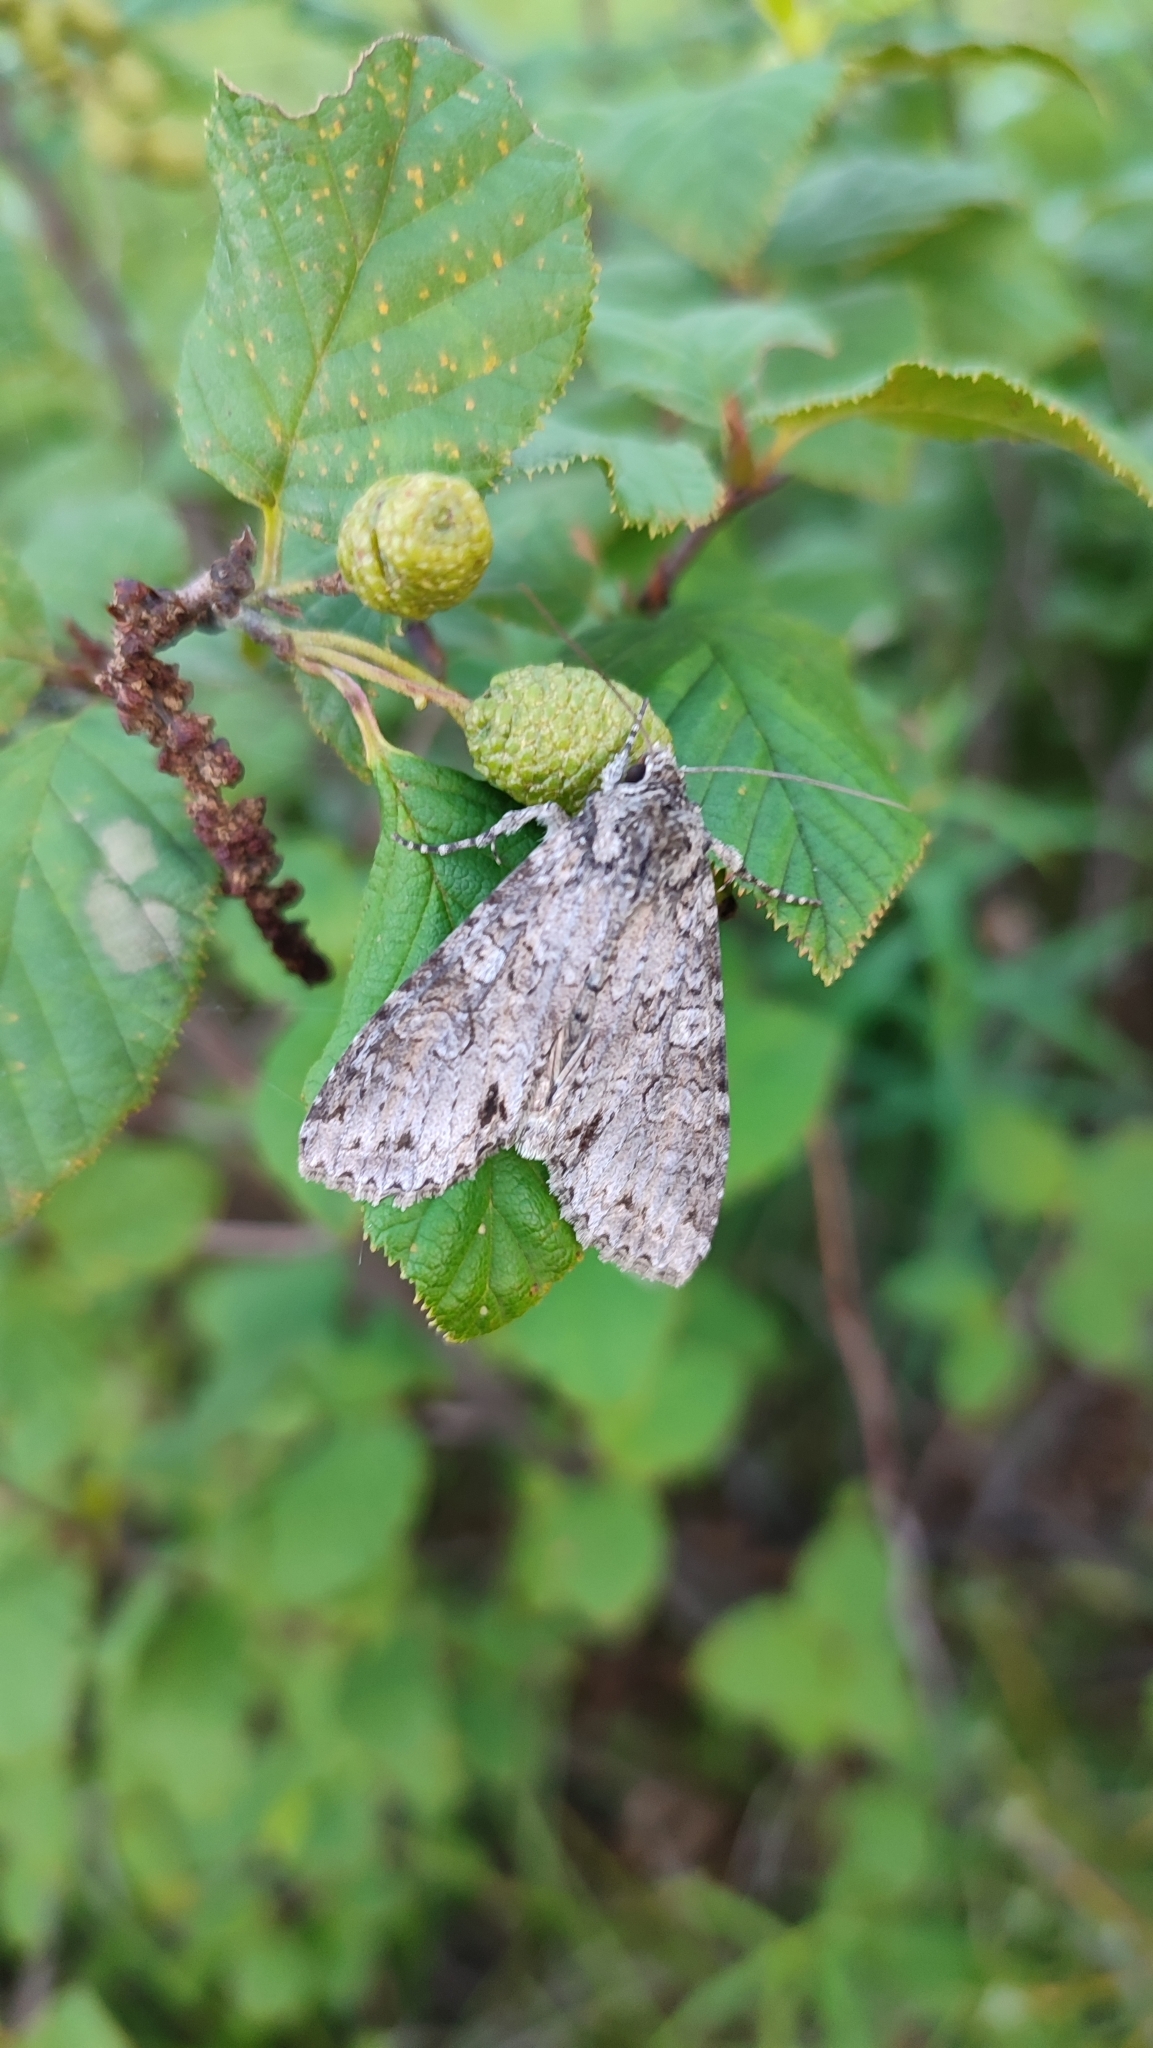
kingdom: Animalia
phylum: Arthropoda
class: Insecta
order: Lepidoptera
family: Noctuidae
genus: Polia
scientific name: Polia nebulosa
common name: Grey arches
